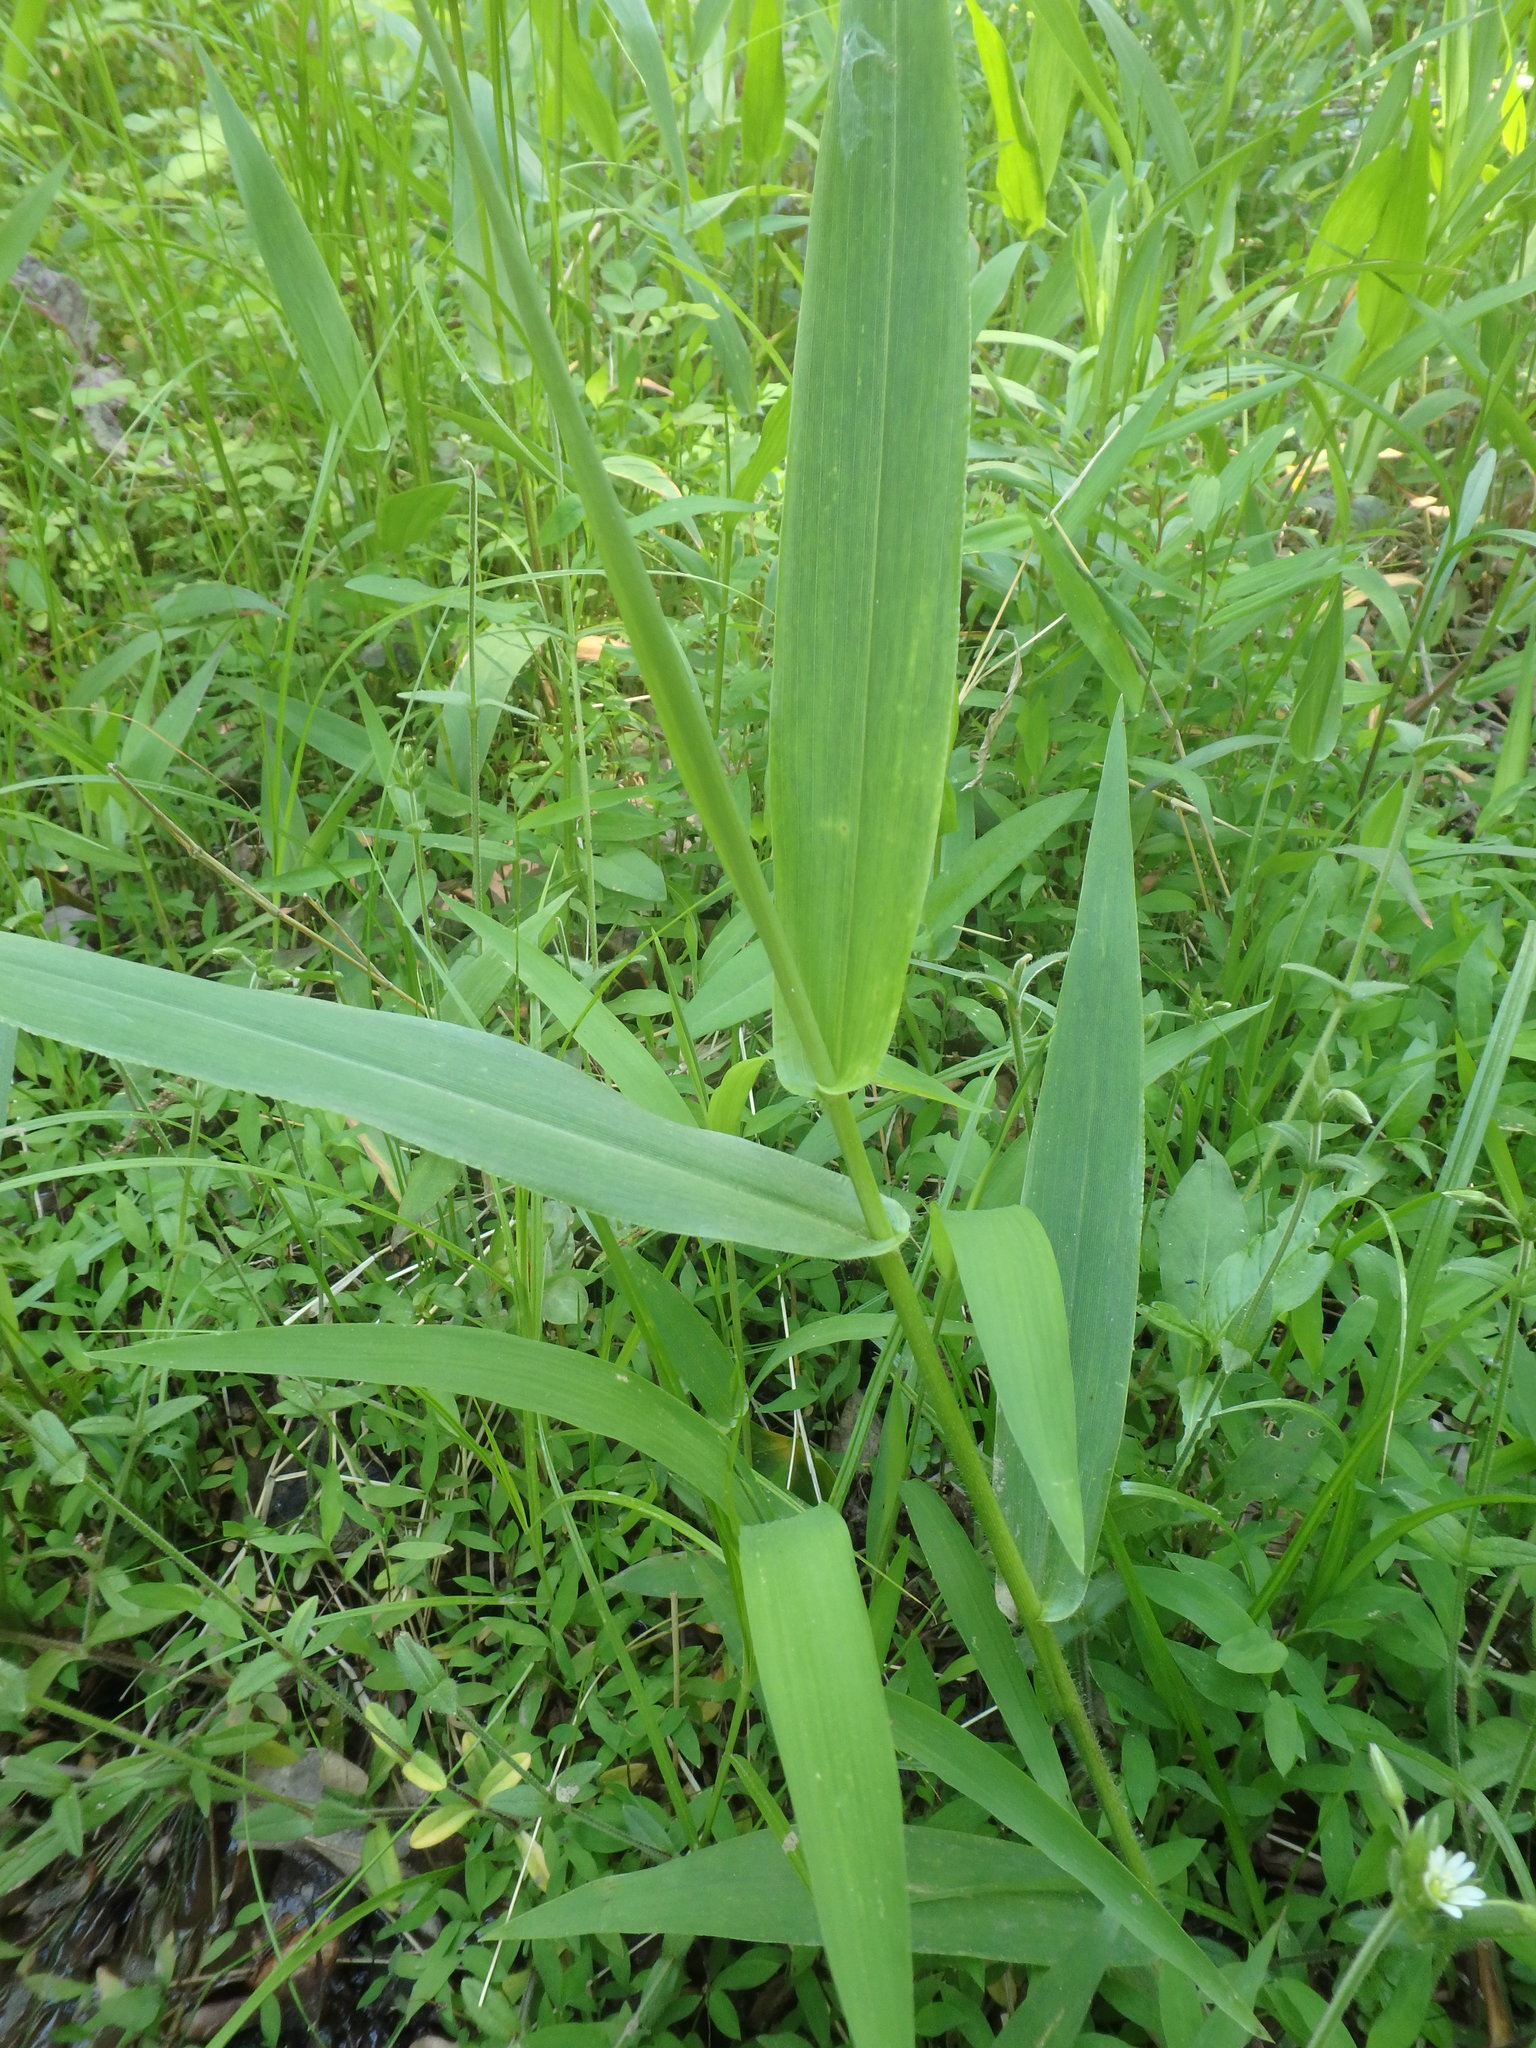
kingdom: Plantae
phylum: Tracheophyta
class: Liliopsida
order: Poales
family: Poaceae
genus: Phalaris
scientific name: Phalaris arundinacea
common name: Reed canary-grass
